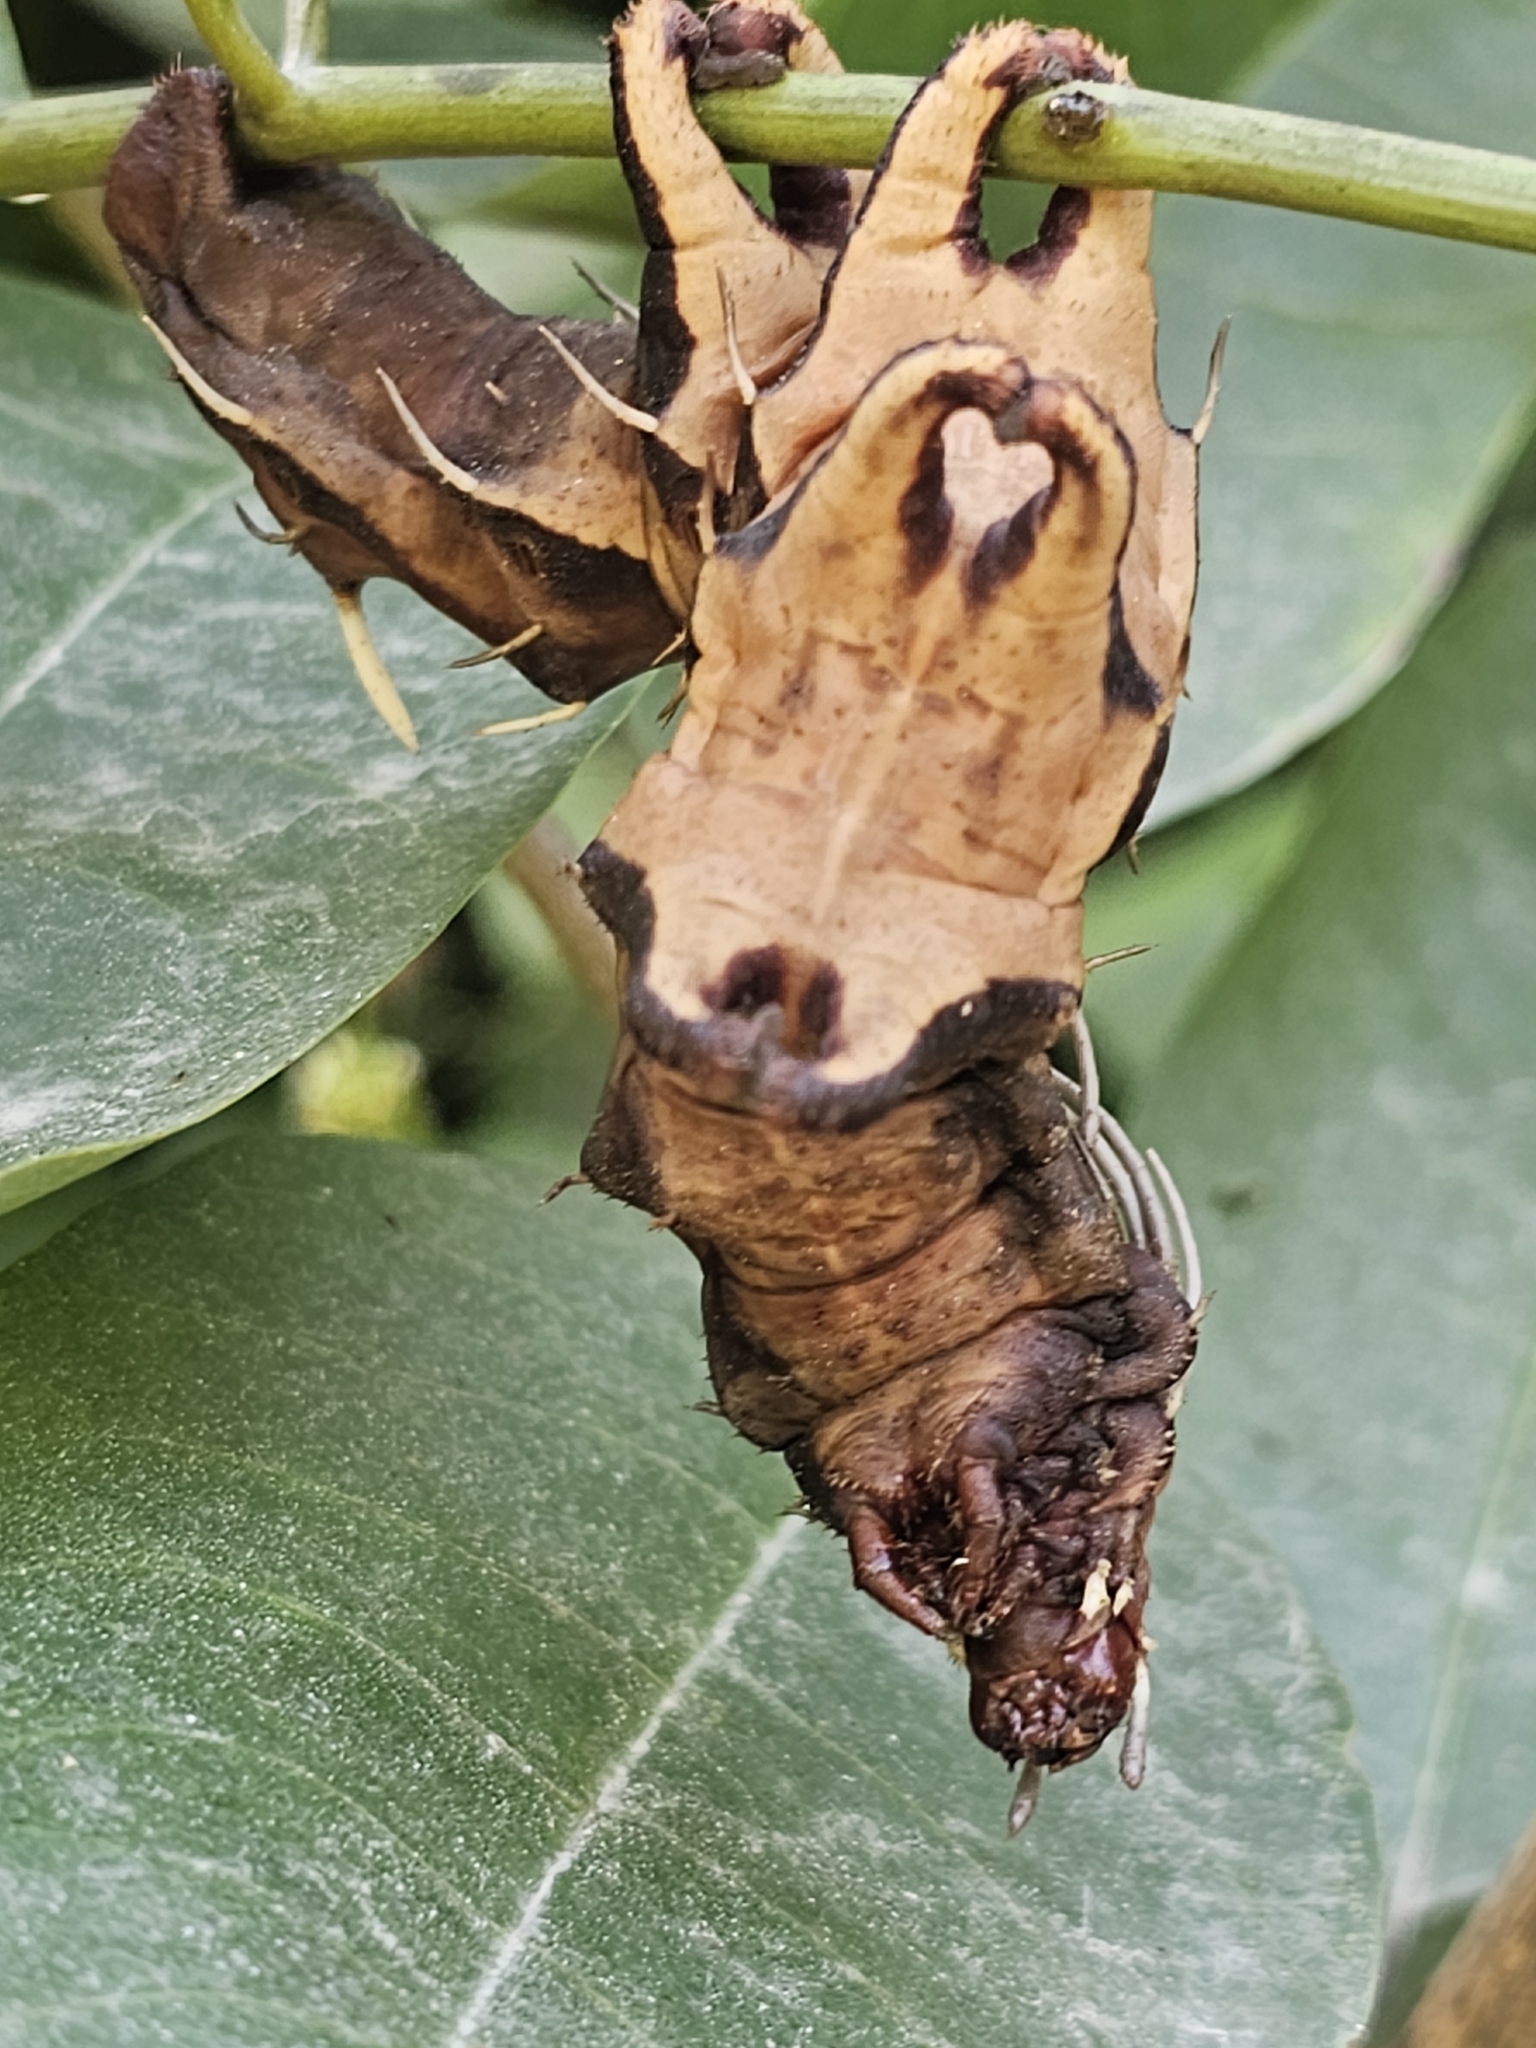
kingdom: Animalia
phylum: Arthropoda
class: Insecta
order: Lepidoptera
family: Saturniidae
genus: Citheronia
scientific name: Citheronia phoronea
